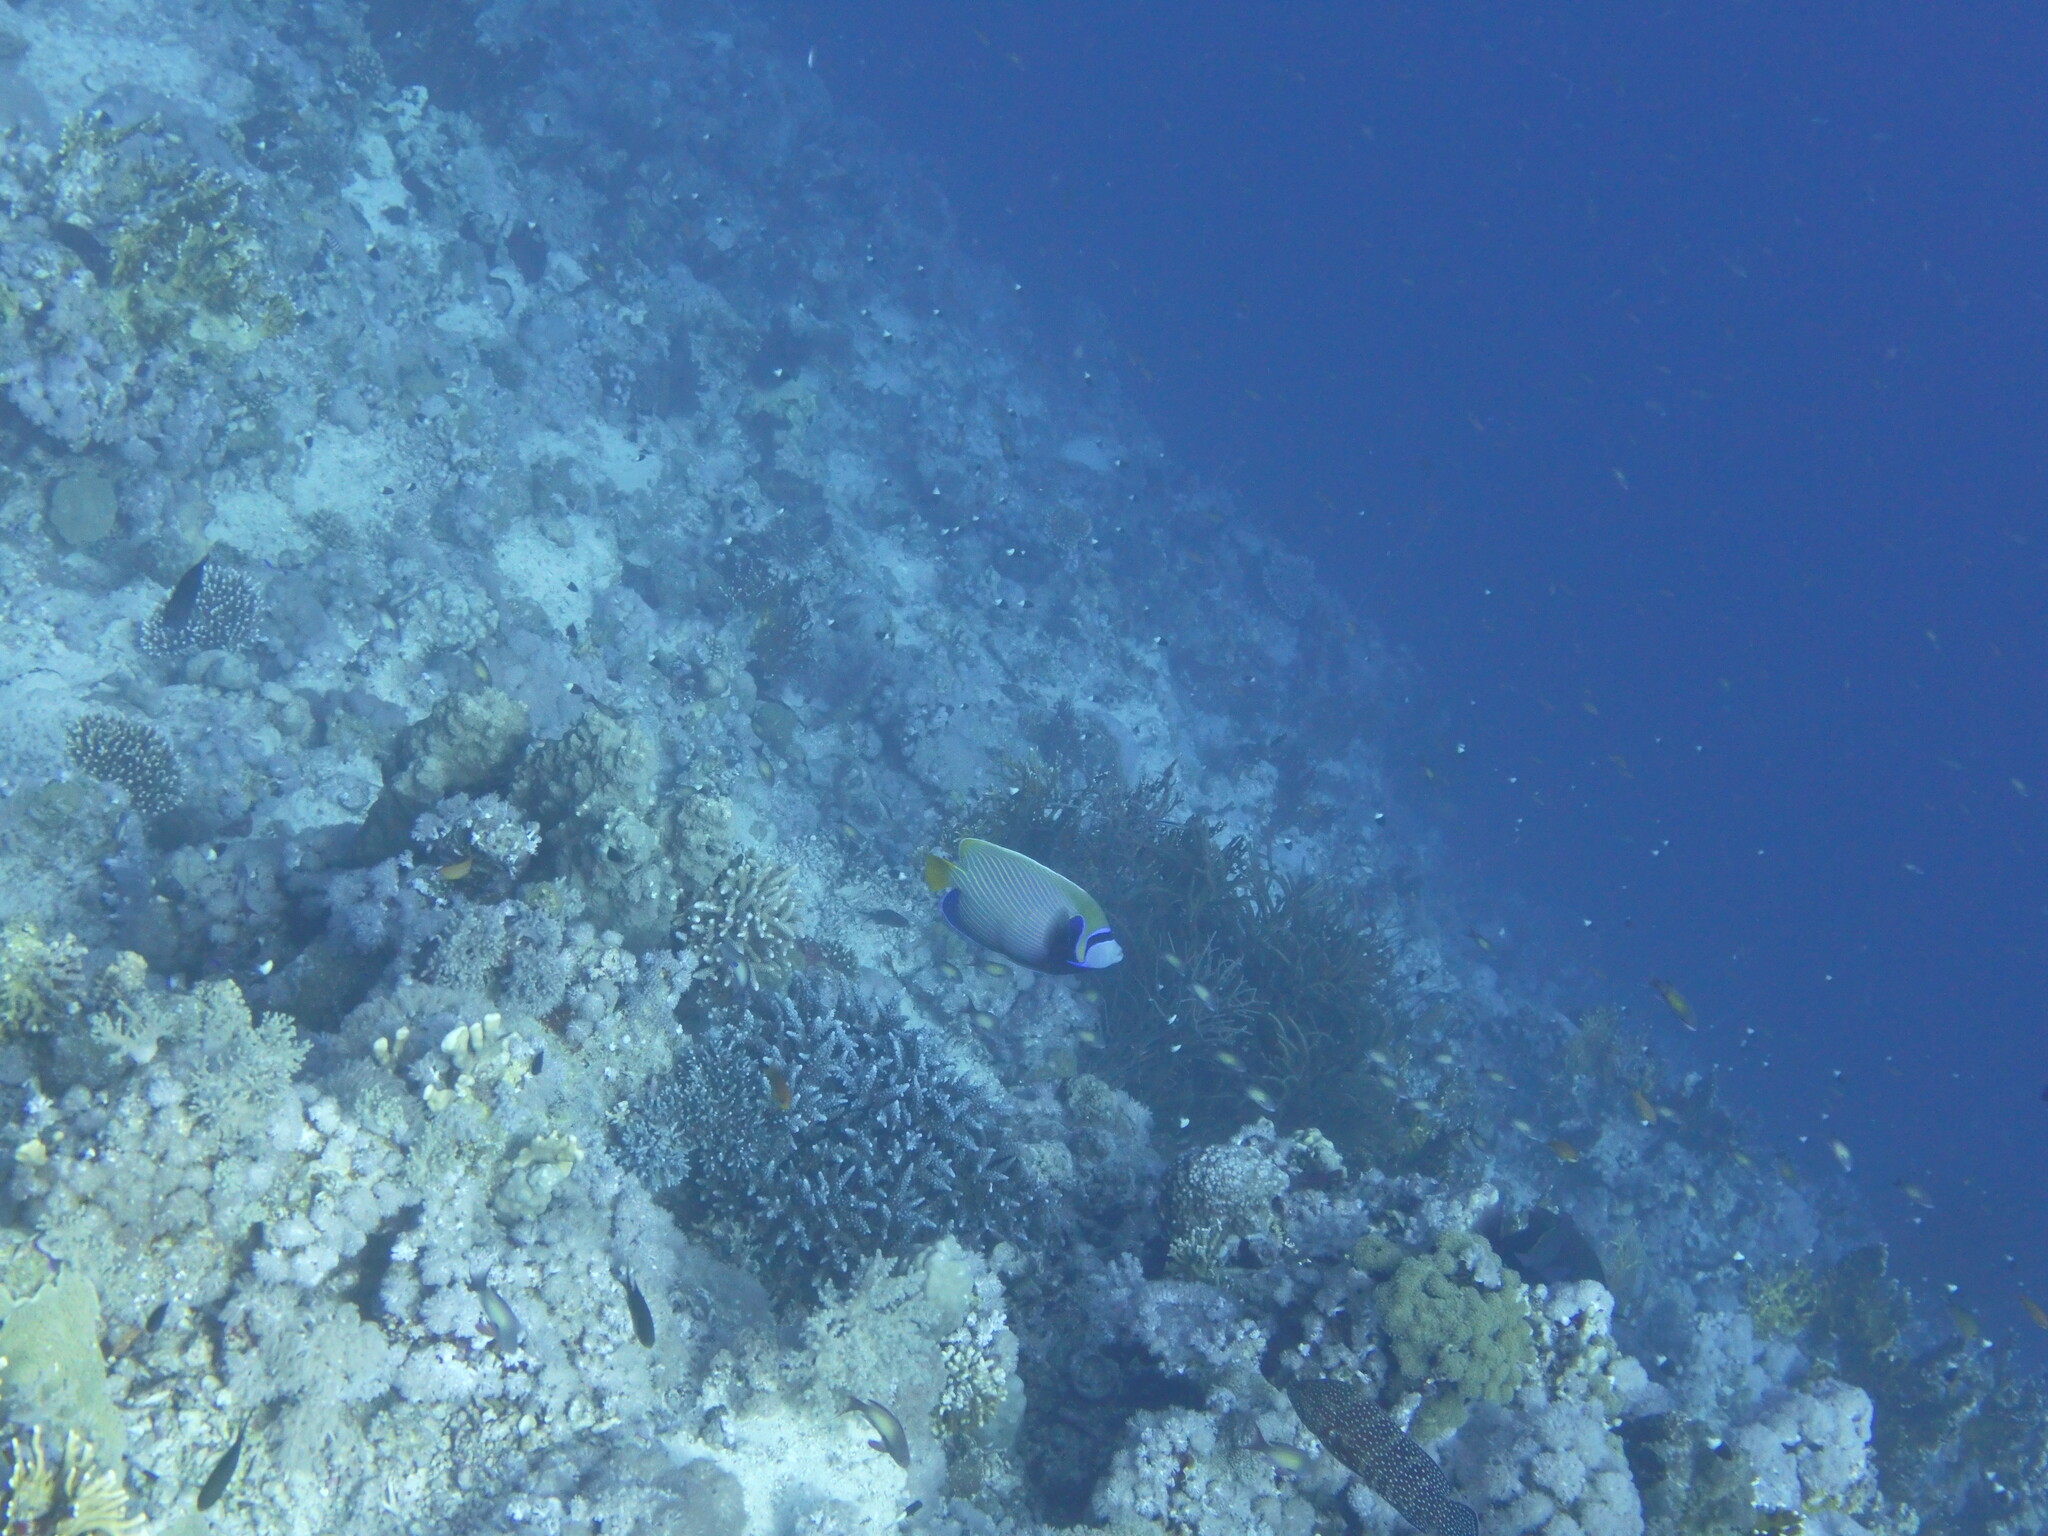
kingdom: Animalia
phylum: Chordata
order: Perciformes
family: Pomacanthidae
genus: Pomacanthus
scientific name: Pomacanthus imperator
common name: Emperor angelfish
